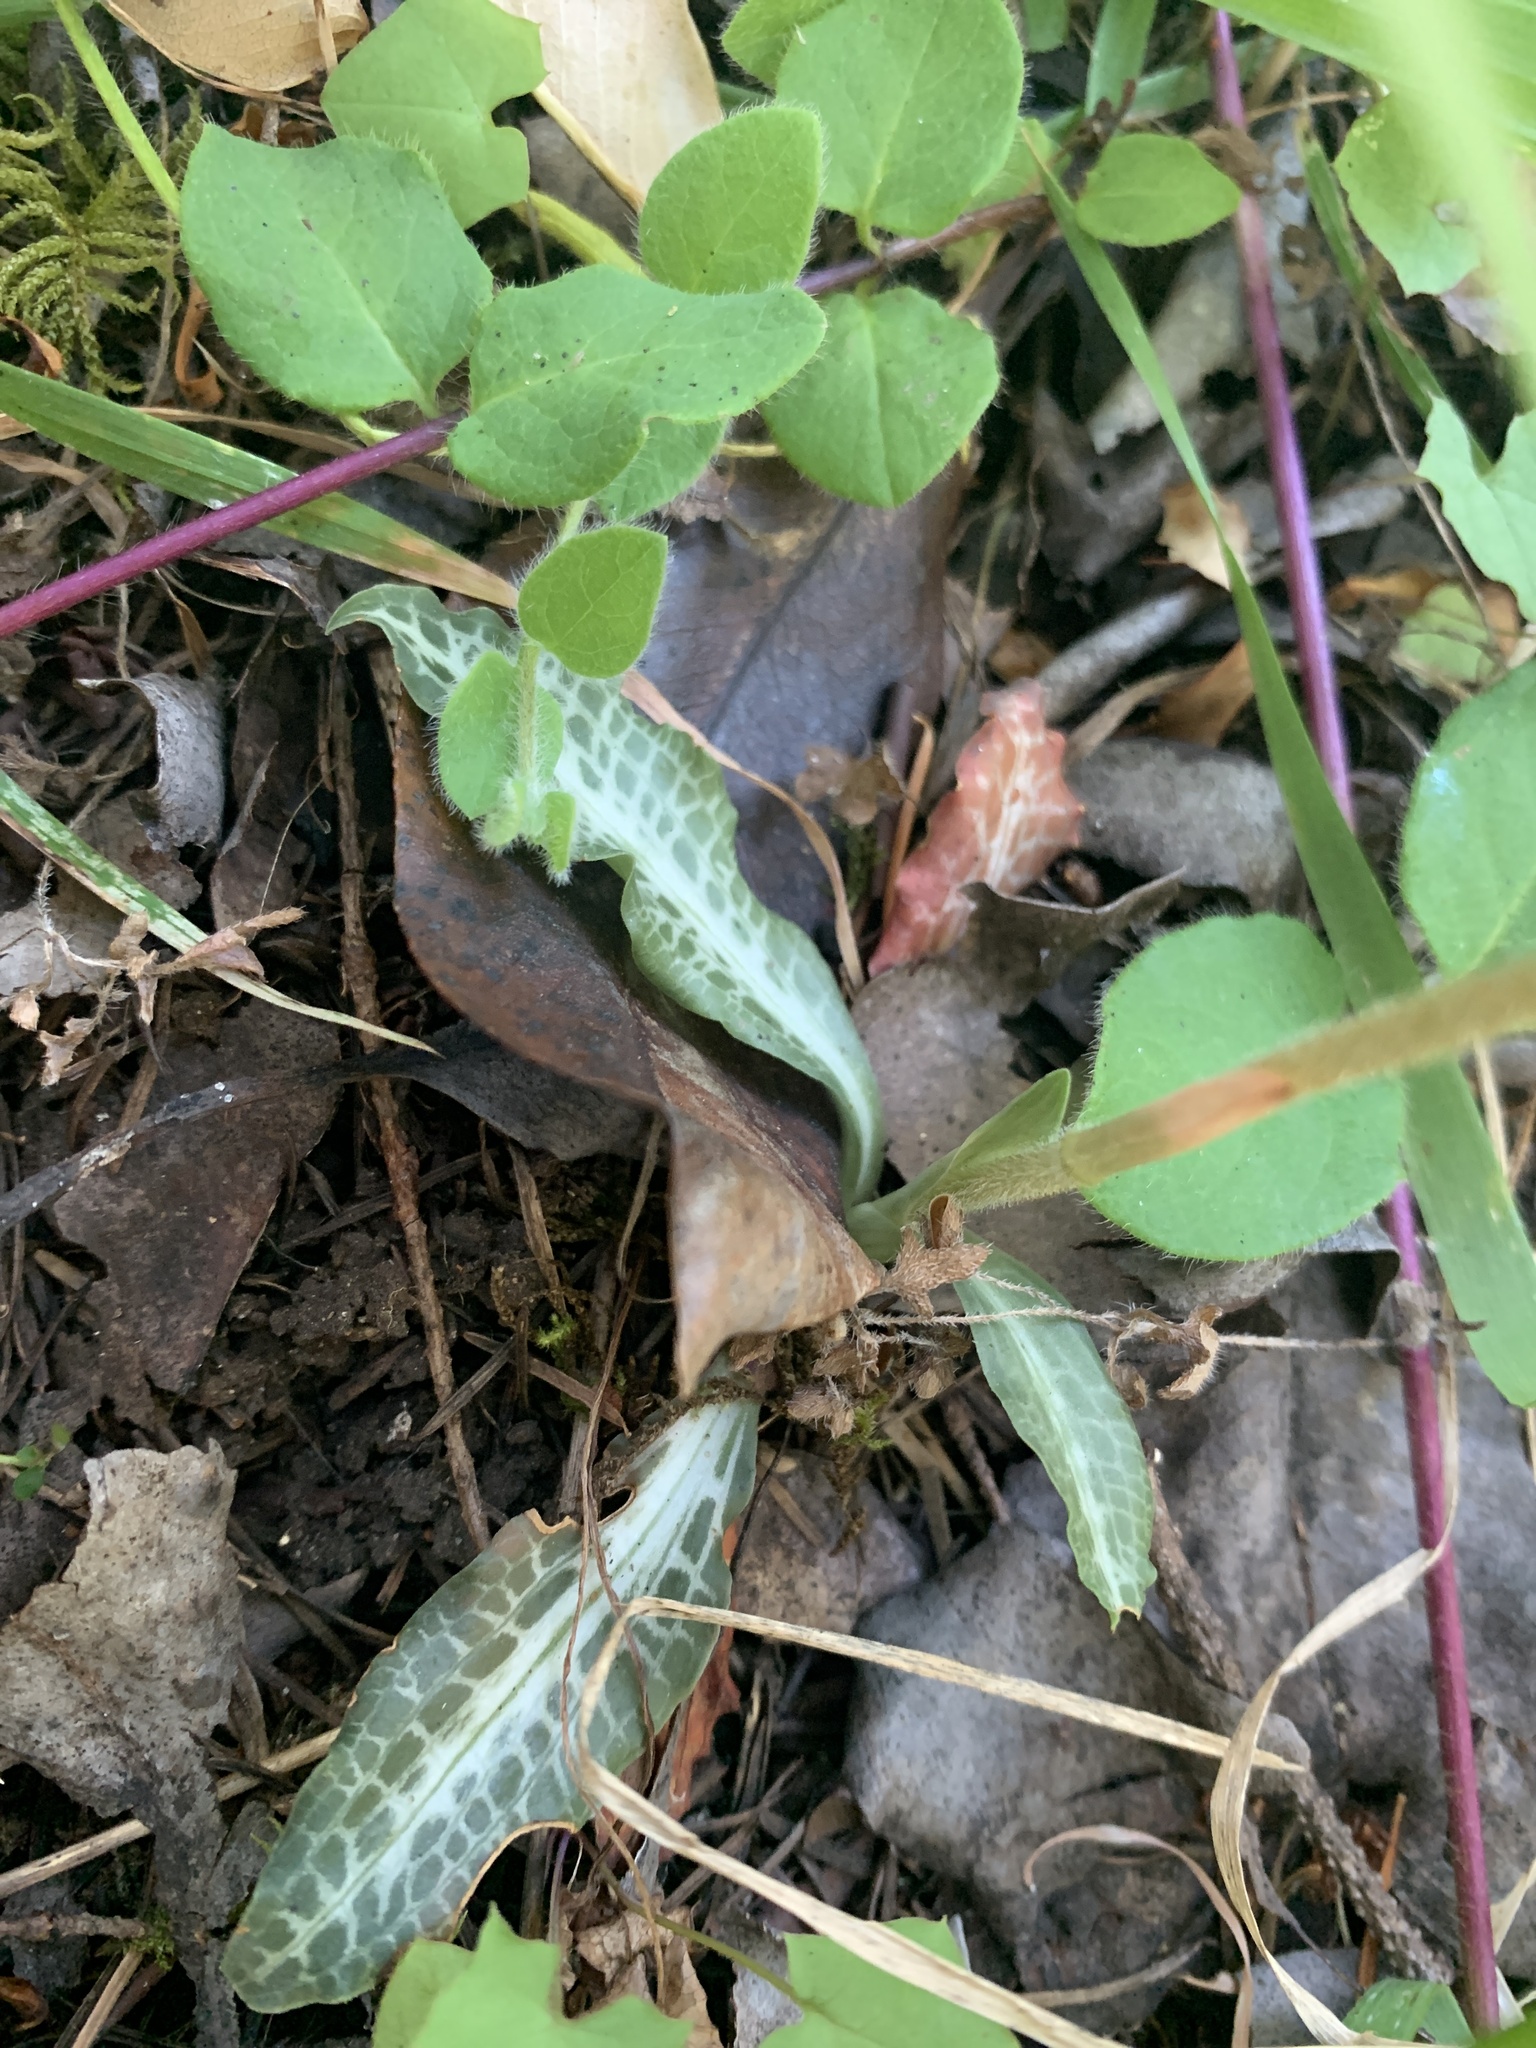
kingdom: Plantae
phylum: Tracheophyta
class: Liliopsida
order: Asparagales
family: Orchidaceae
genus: Goodyera
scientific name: Goodyera oblongifolia
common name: Giant rattlesnake-plantain
